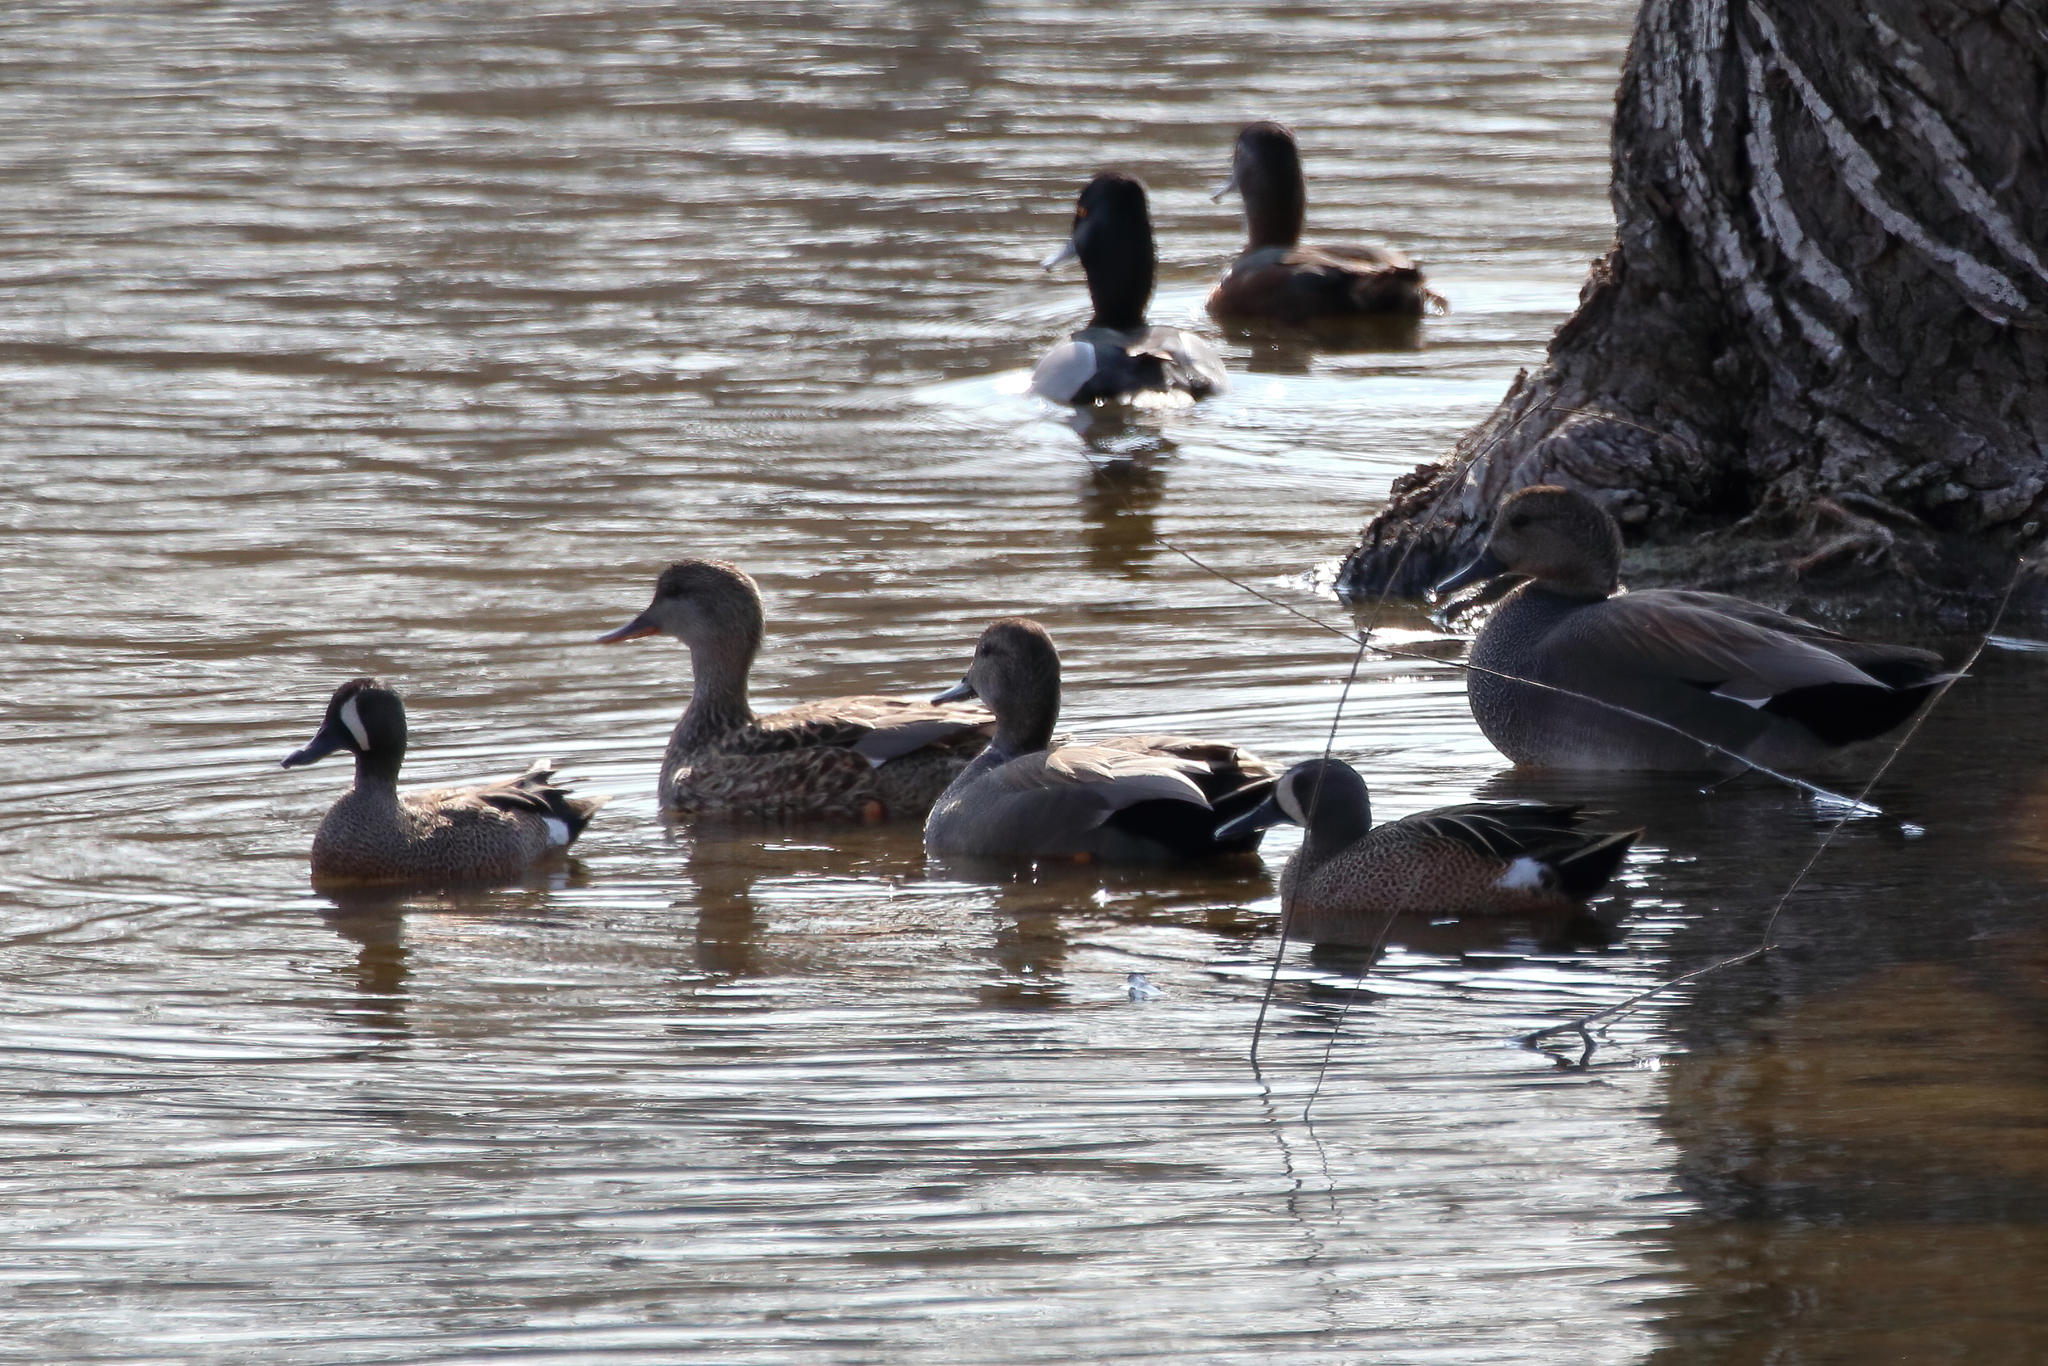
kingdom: Animalia
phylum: Chordata
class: Aves
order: Anseriformes
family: Anatidae
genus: Spatula
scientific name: Spatula discors
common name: Blue-winged teal
